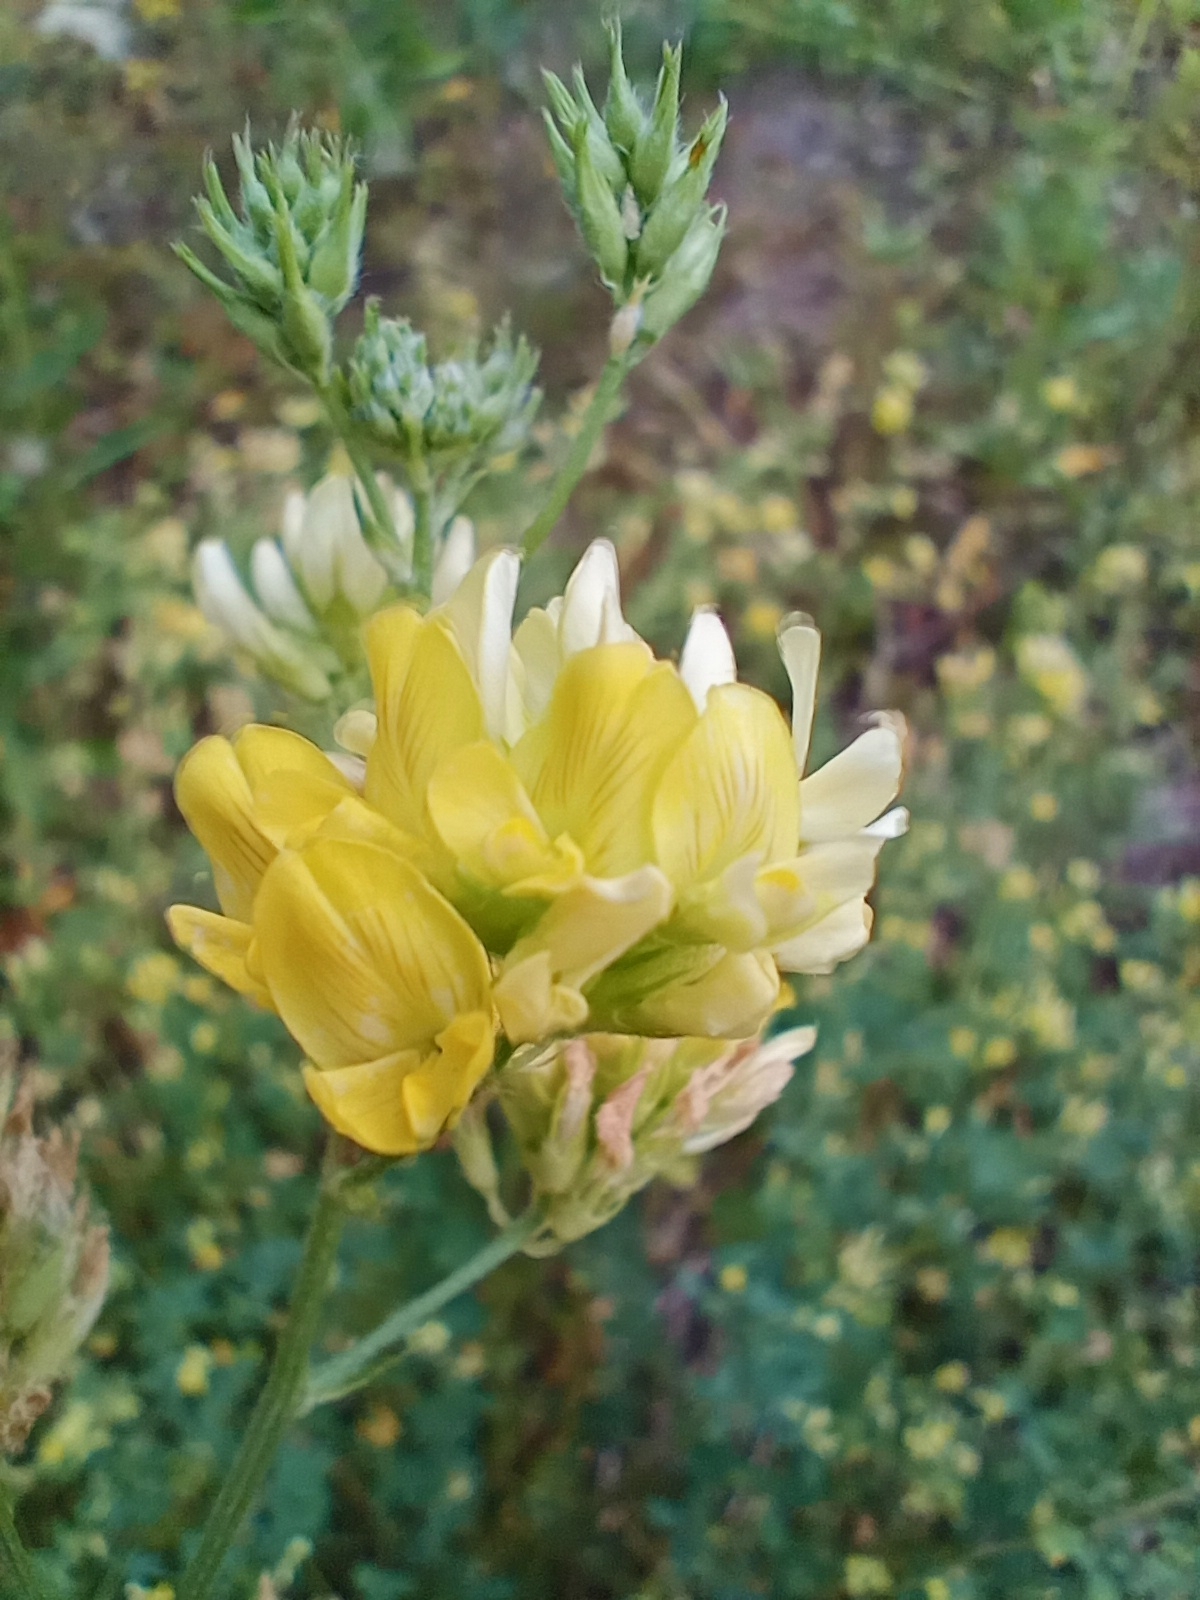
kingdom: Plantae
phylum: Tracheophyta
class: Magnoliopsida
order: Fabales
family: Fabaceae
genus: Medicago
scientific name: Medicago falcata
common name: Sickle medick
